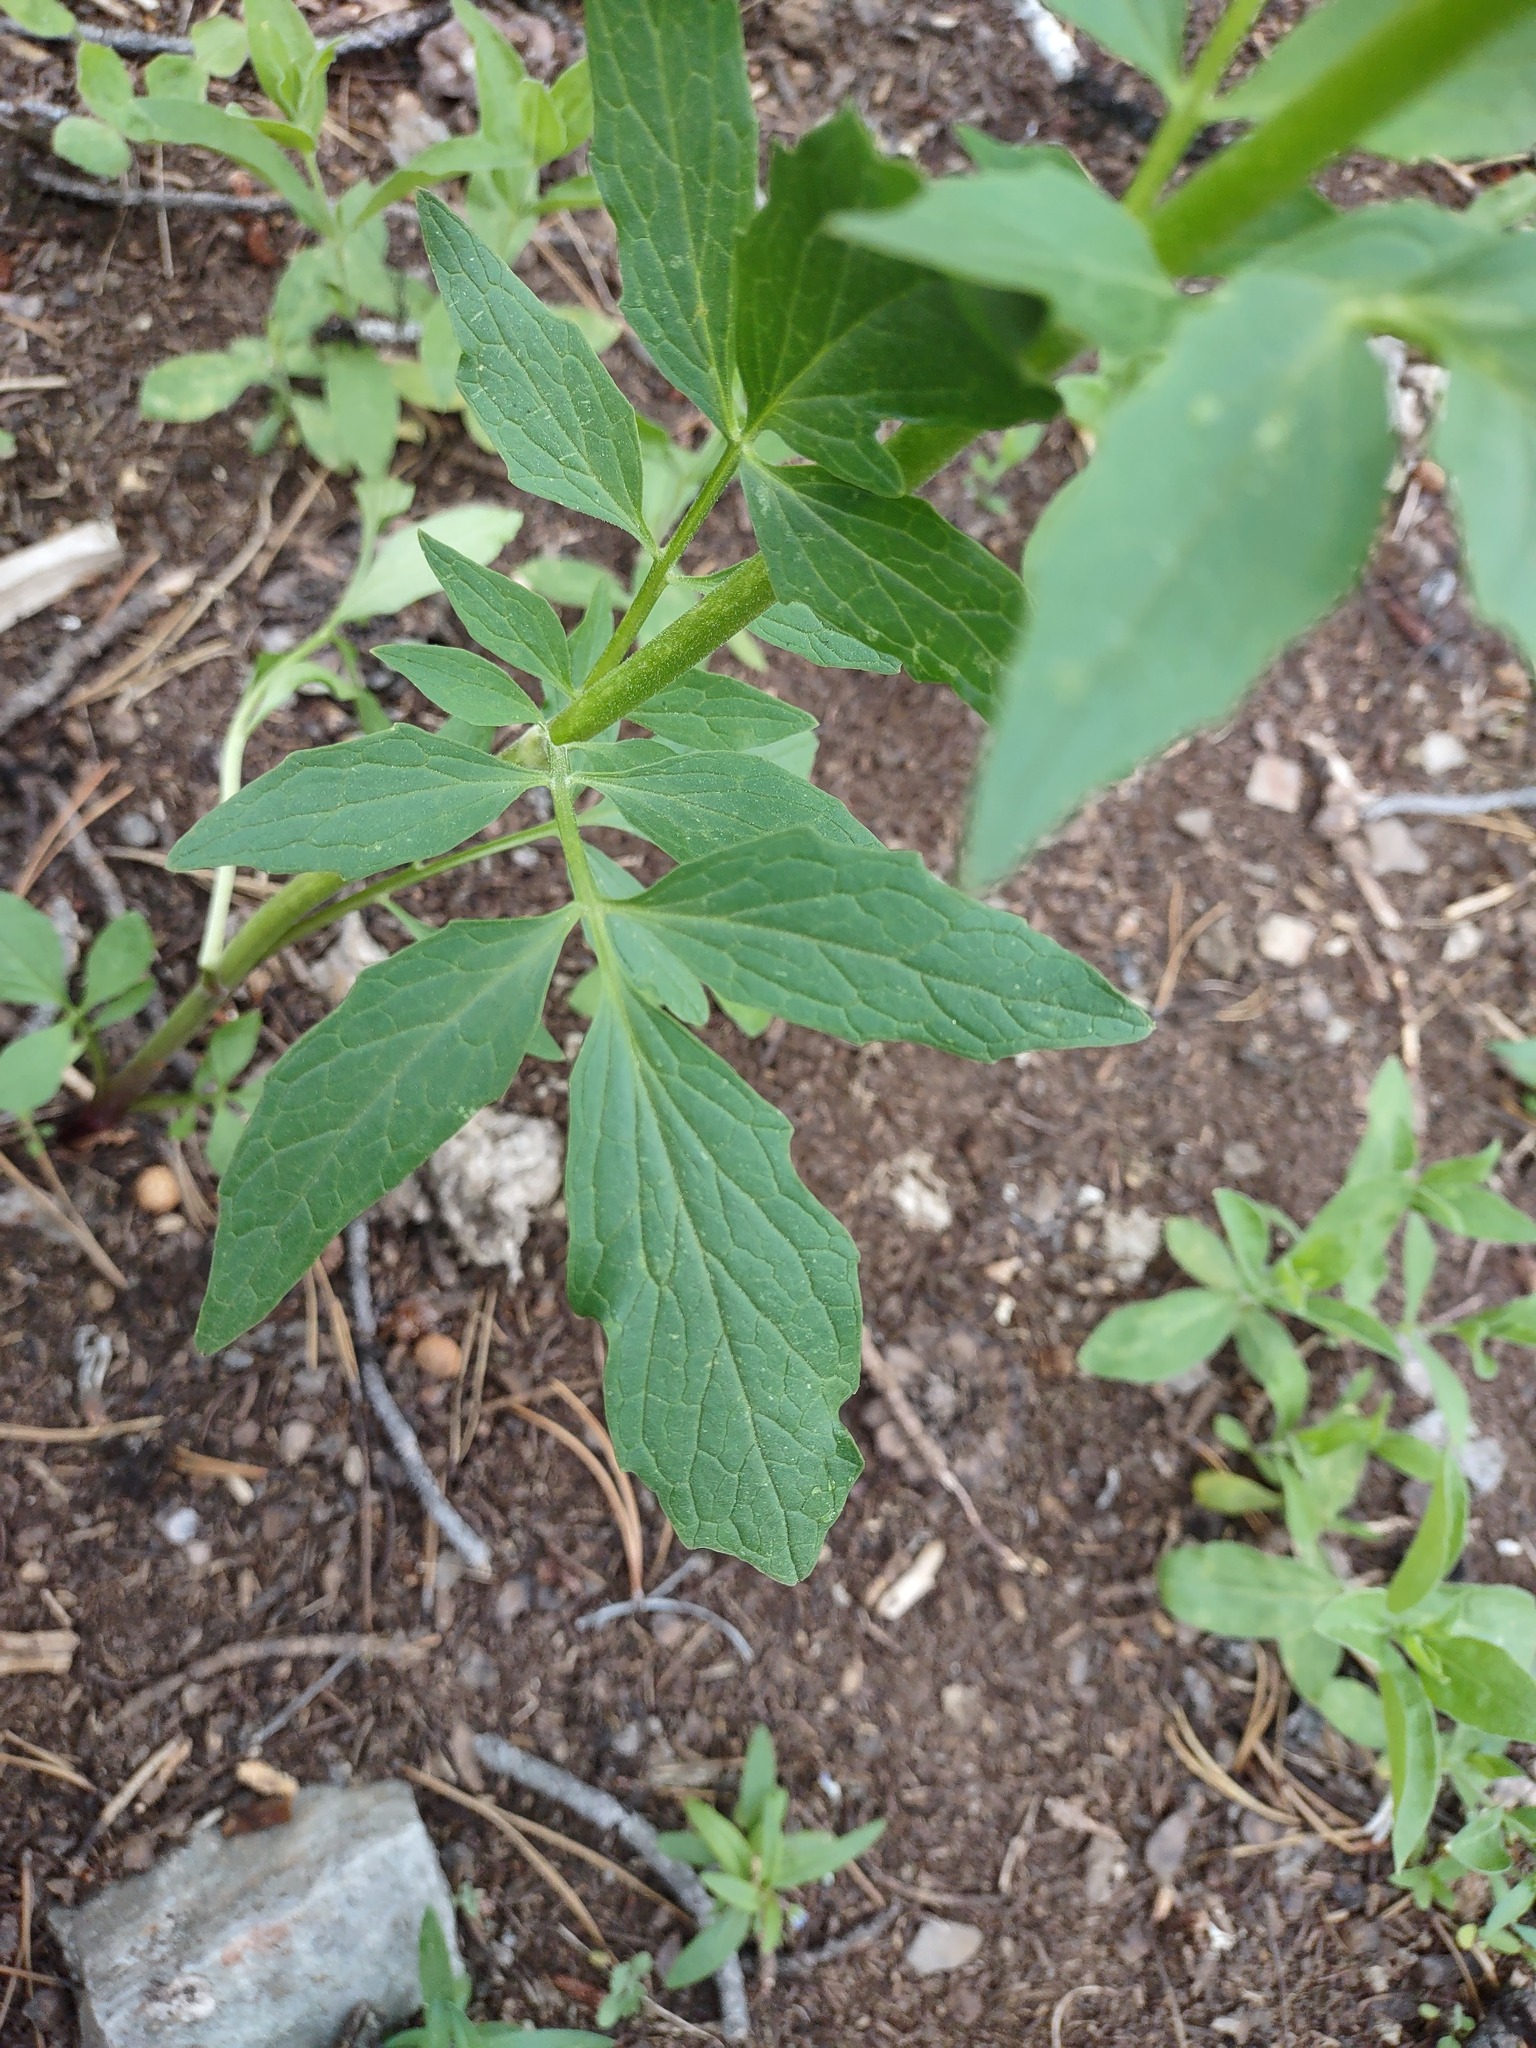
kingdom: Plantae
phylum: Tracheophyta
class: Magnoliopsida
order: Dipsacales
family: Caprifoliaceae
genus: Valeriana
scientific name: Valeriana sitchensis
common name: Pacific valerian
